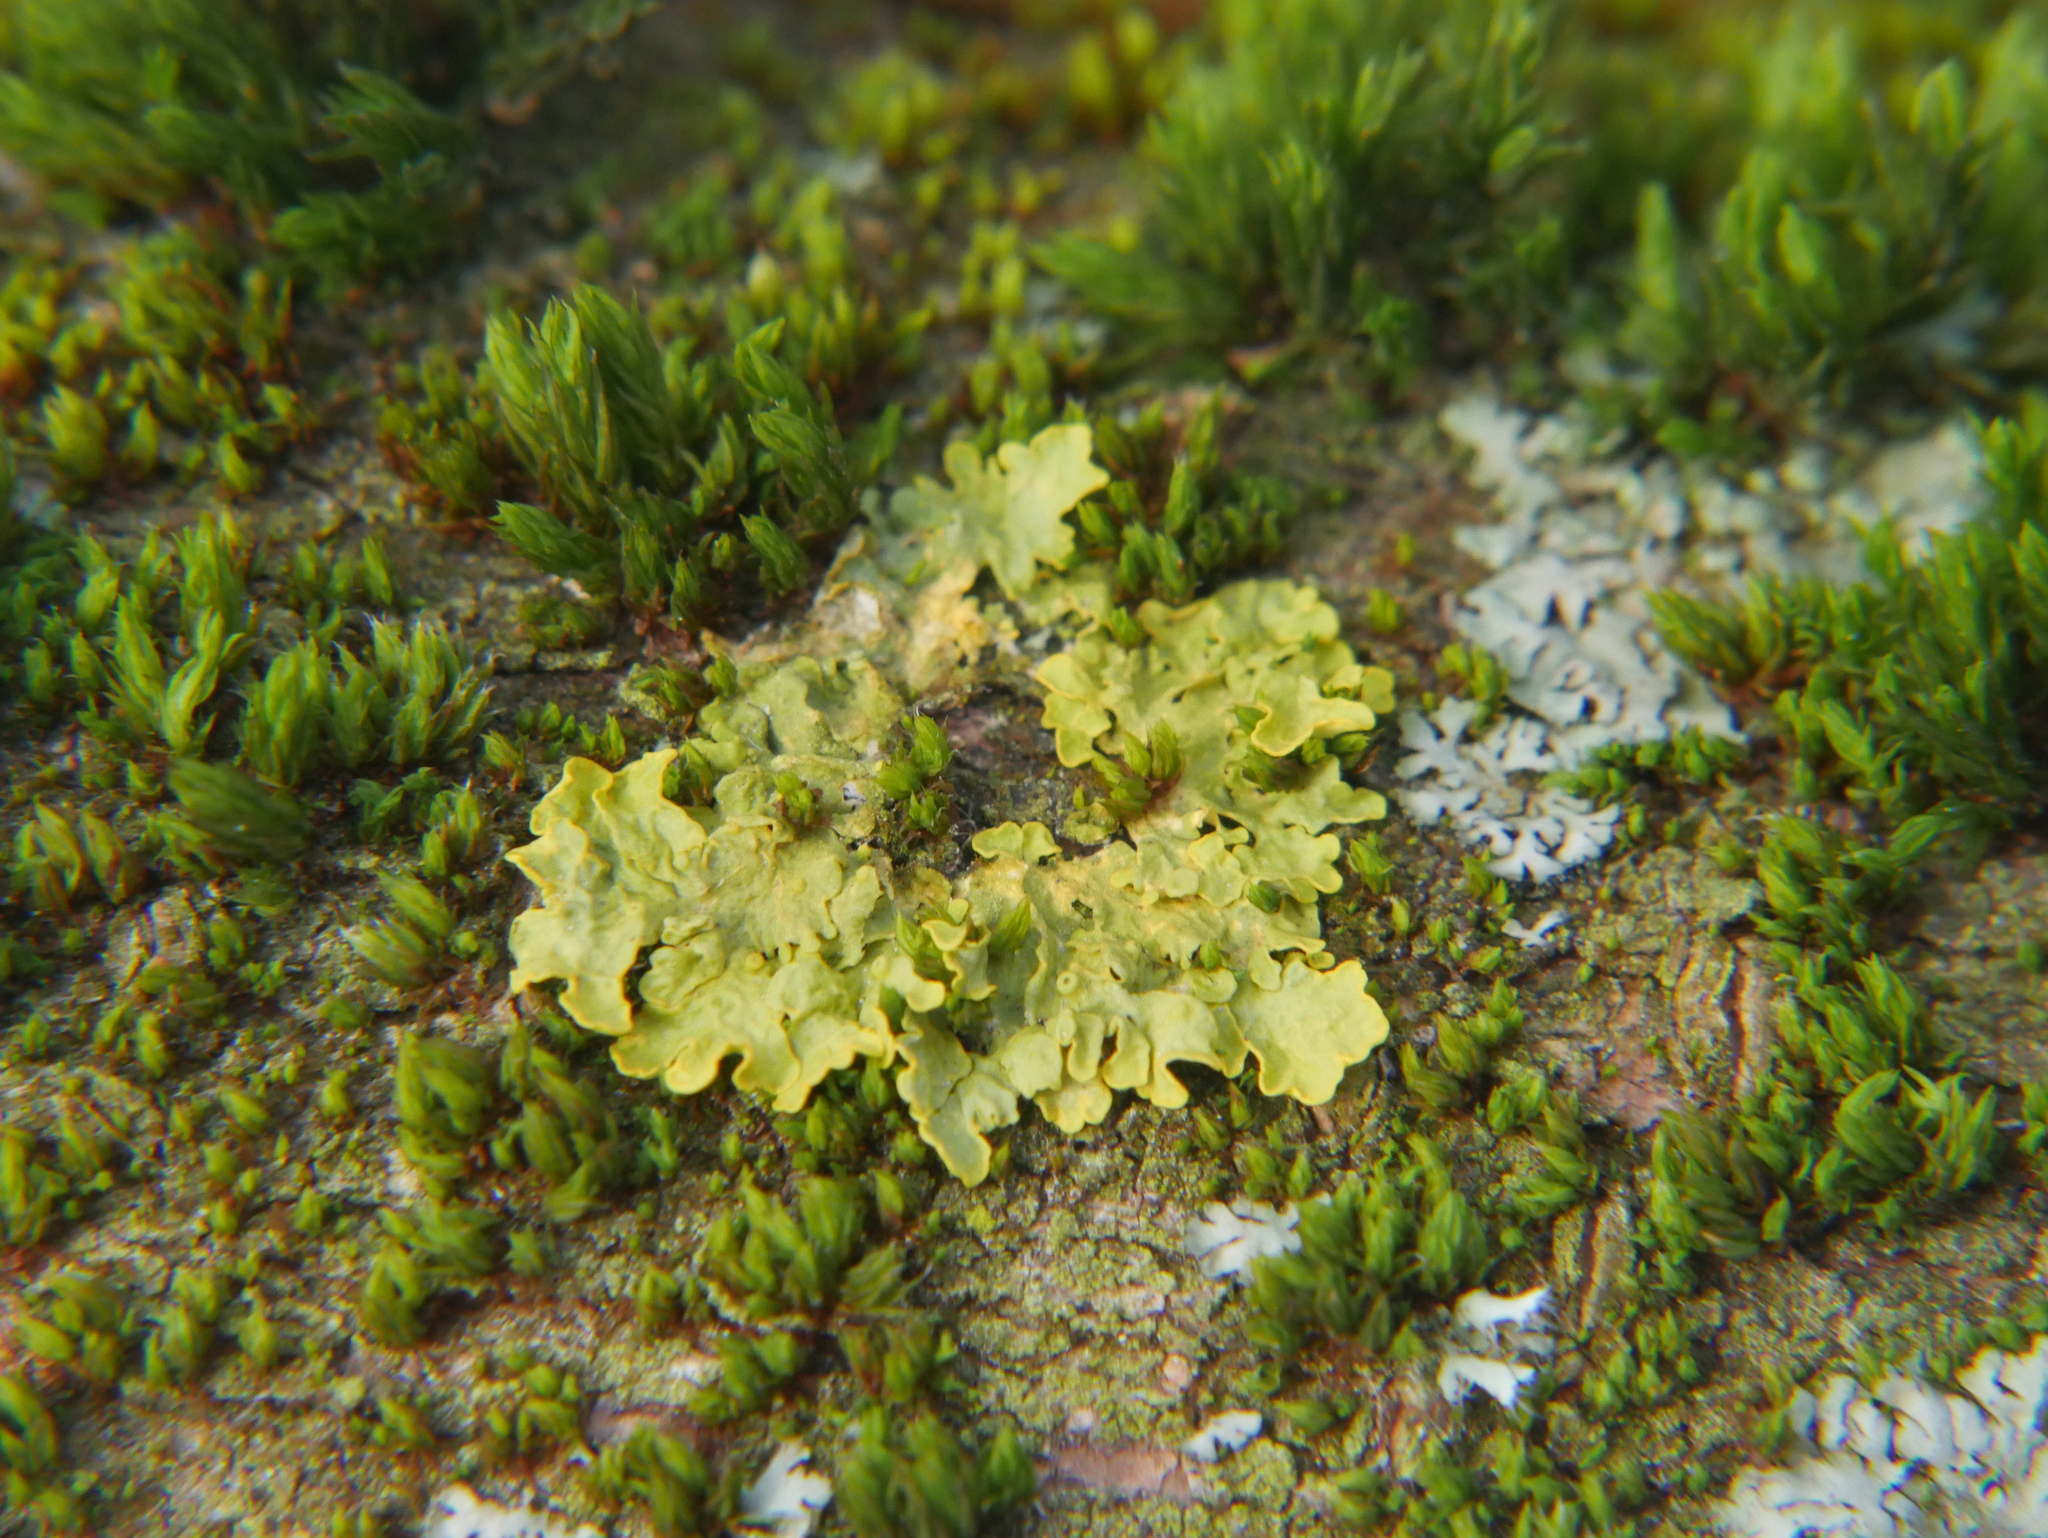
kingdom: Fungi
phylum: Ascomycota
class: Lecanoromycetes
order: Teloschistales
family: Teloschistaceae
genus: Xanthoria
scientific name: Xanthoria parietina
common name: Common orange lichen
